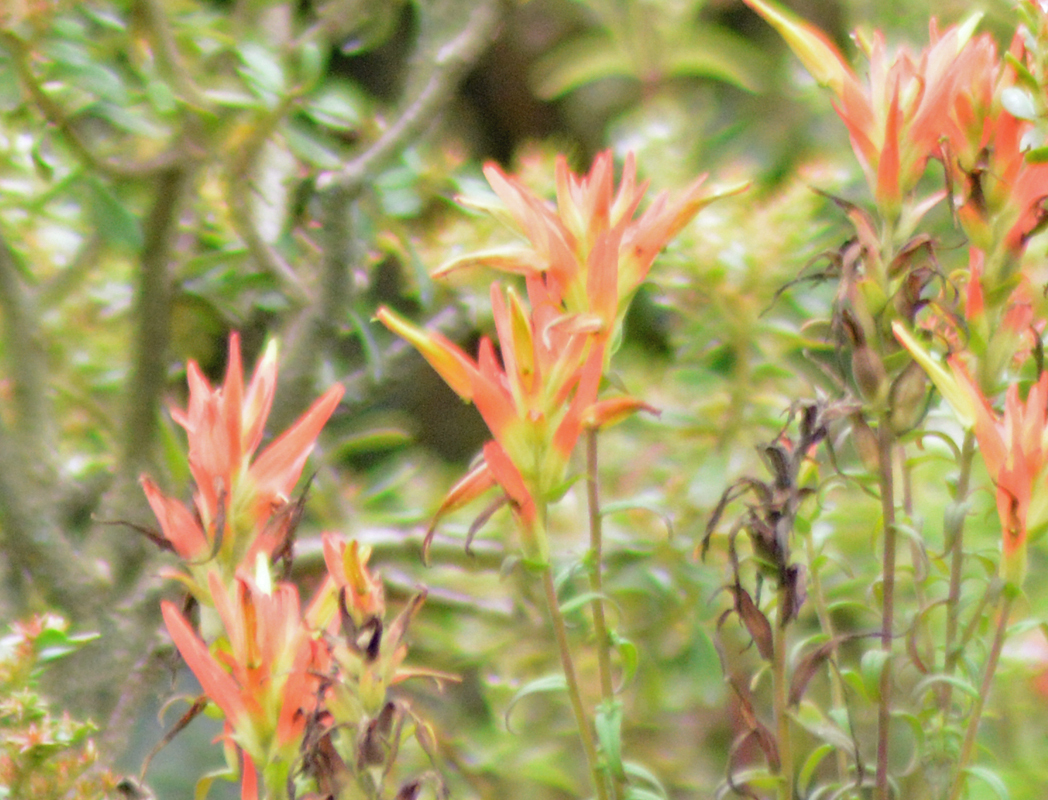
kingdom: Plantae
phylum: Tracheophyta
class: Magnoliopsida
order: Lamiales
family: Orobanchaceae
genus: Castilleja
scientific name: Castilleja tenuiflora
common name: Santa catalina indian paintbrush
